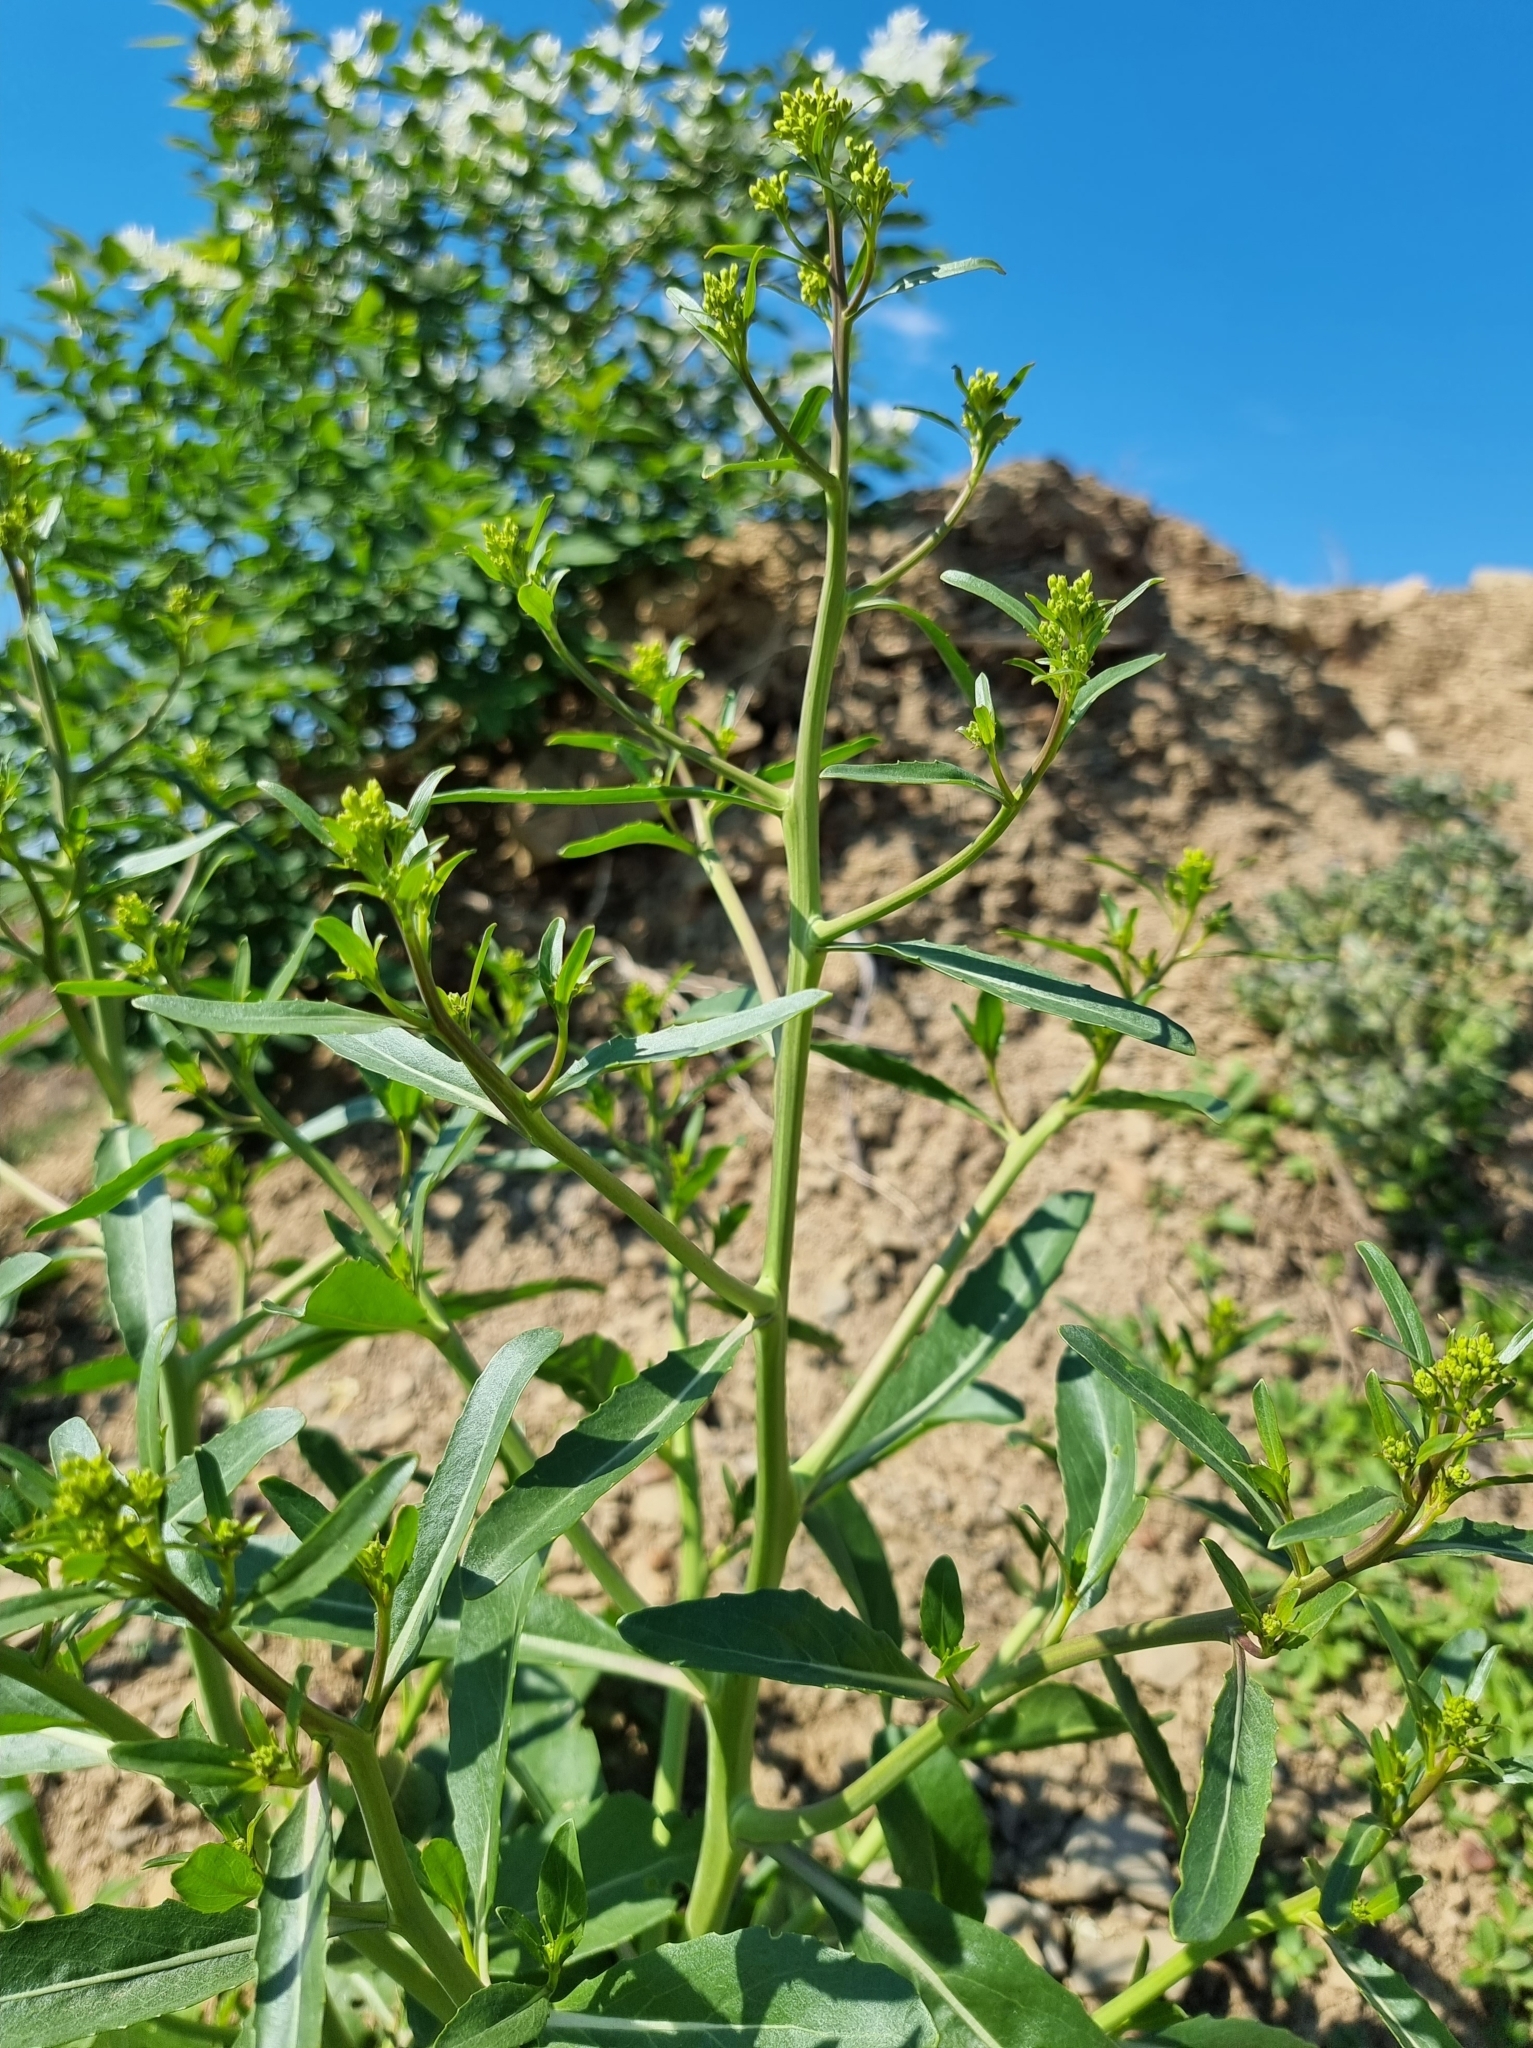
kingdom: Plantae
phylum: Tracheophyta
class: Magnoliopsida
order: Brassicales
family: Brassicaceae
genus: Brassica
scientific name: Brassica elongata
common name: Long-stalked rape
